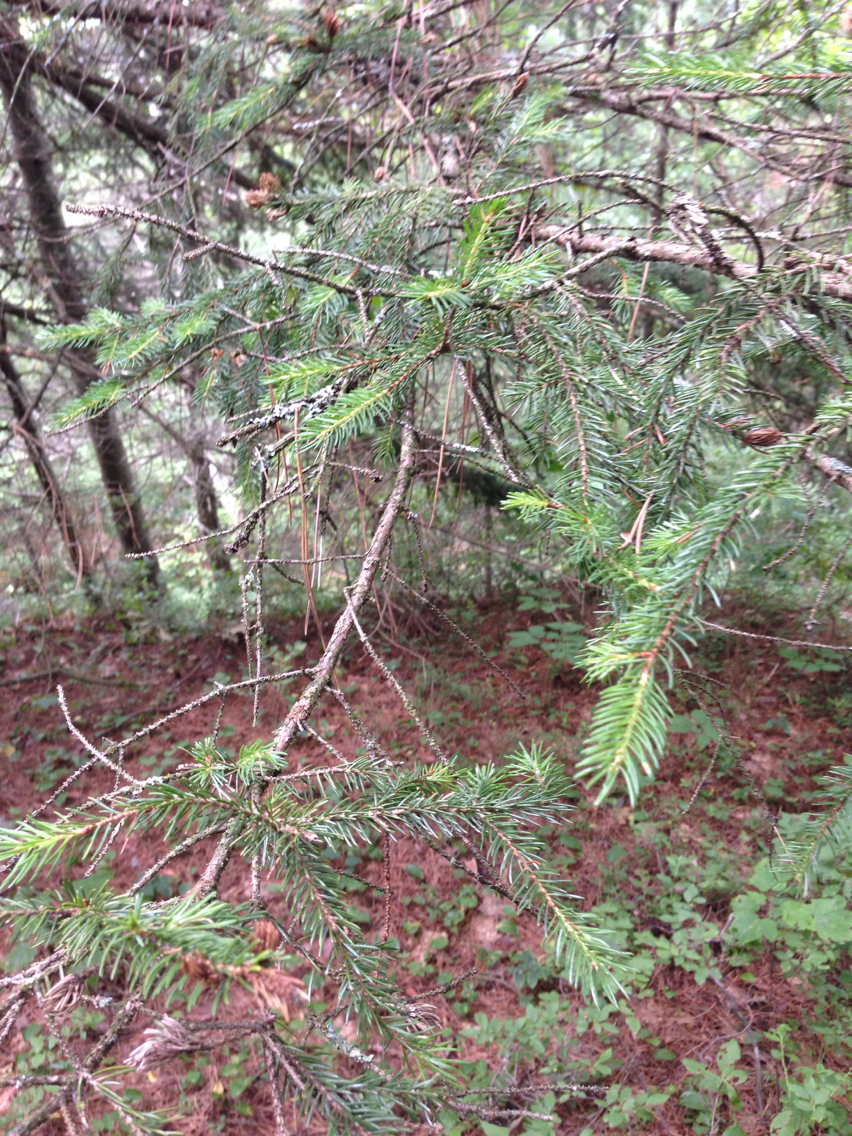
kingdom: Plantae
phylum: Tracheophyta
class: Pinopsida
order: Pinales
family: Pinaceae
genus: Picea
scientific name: Picea rubens
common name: Red spruce
